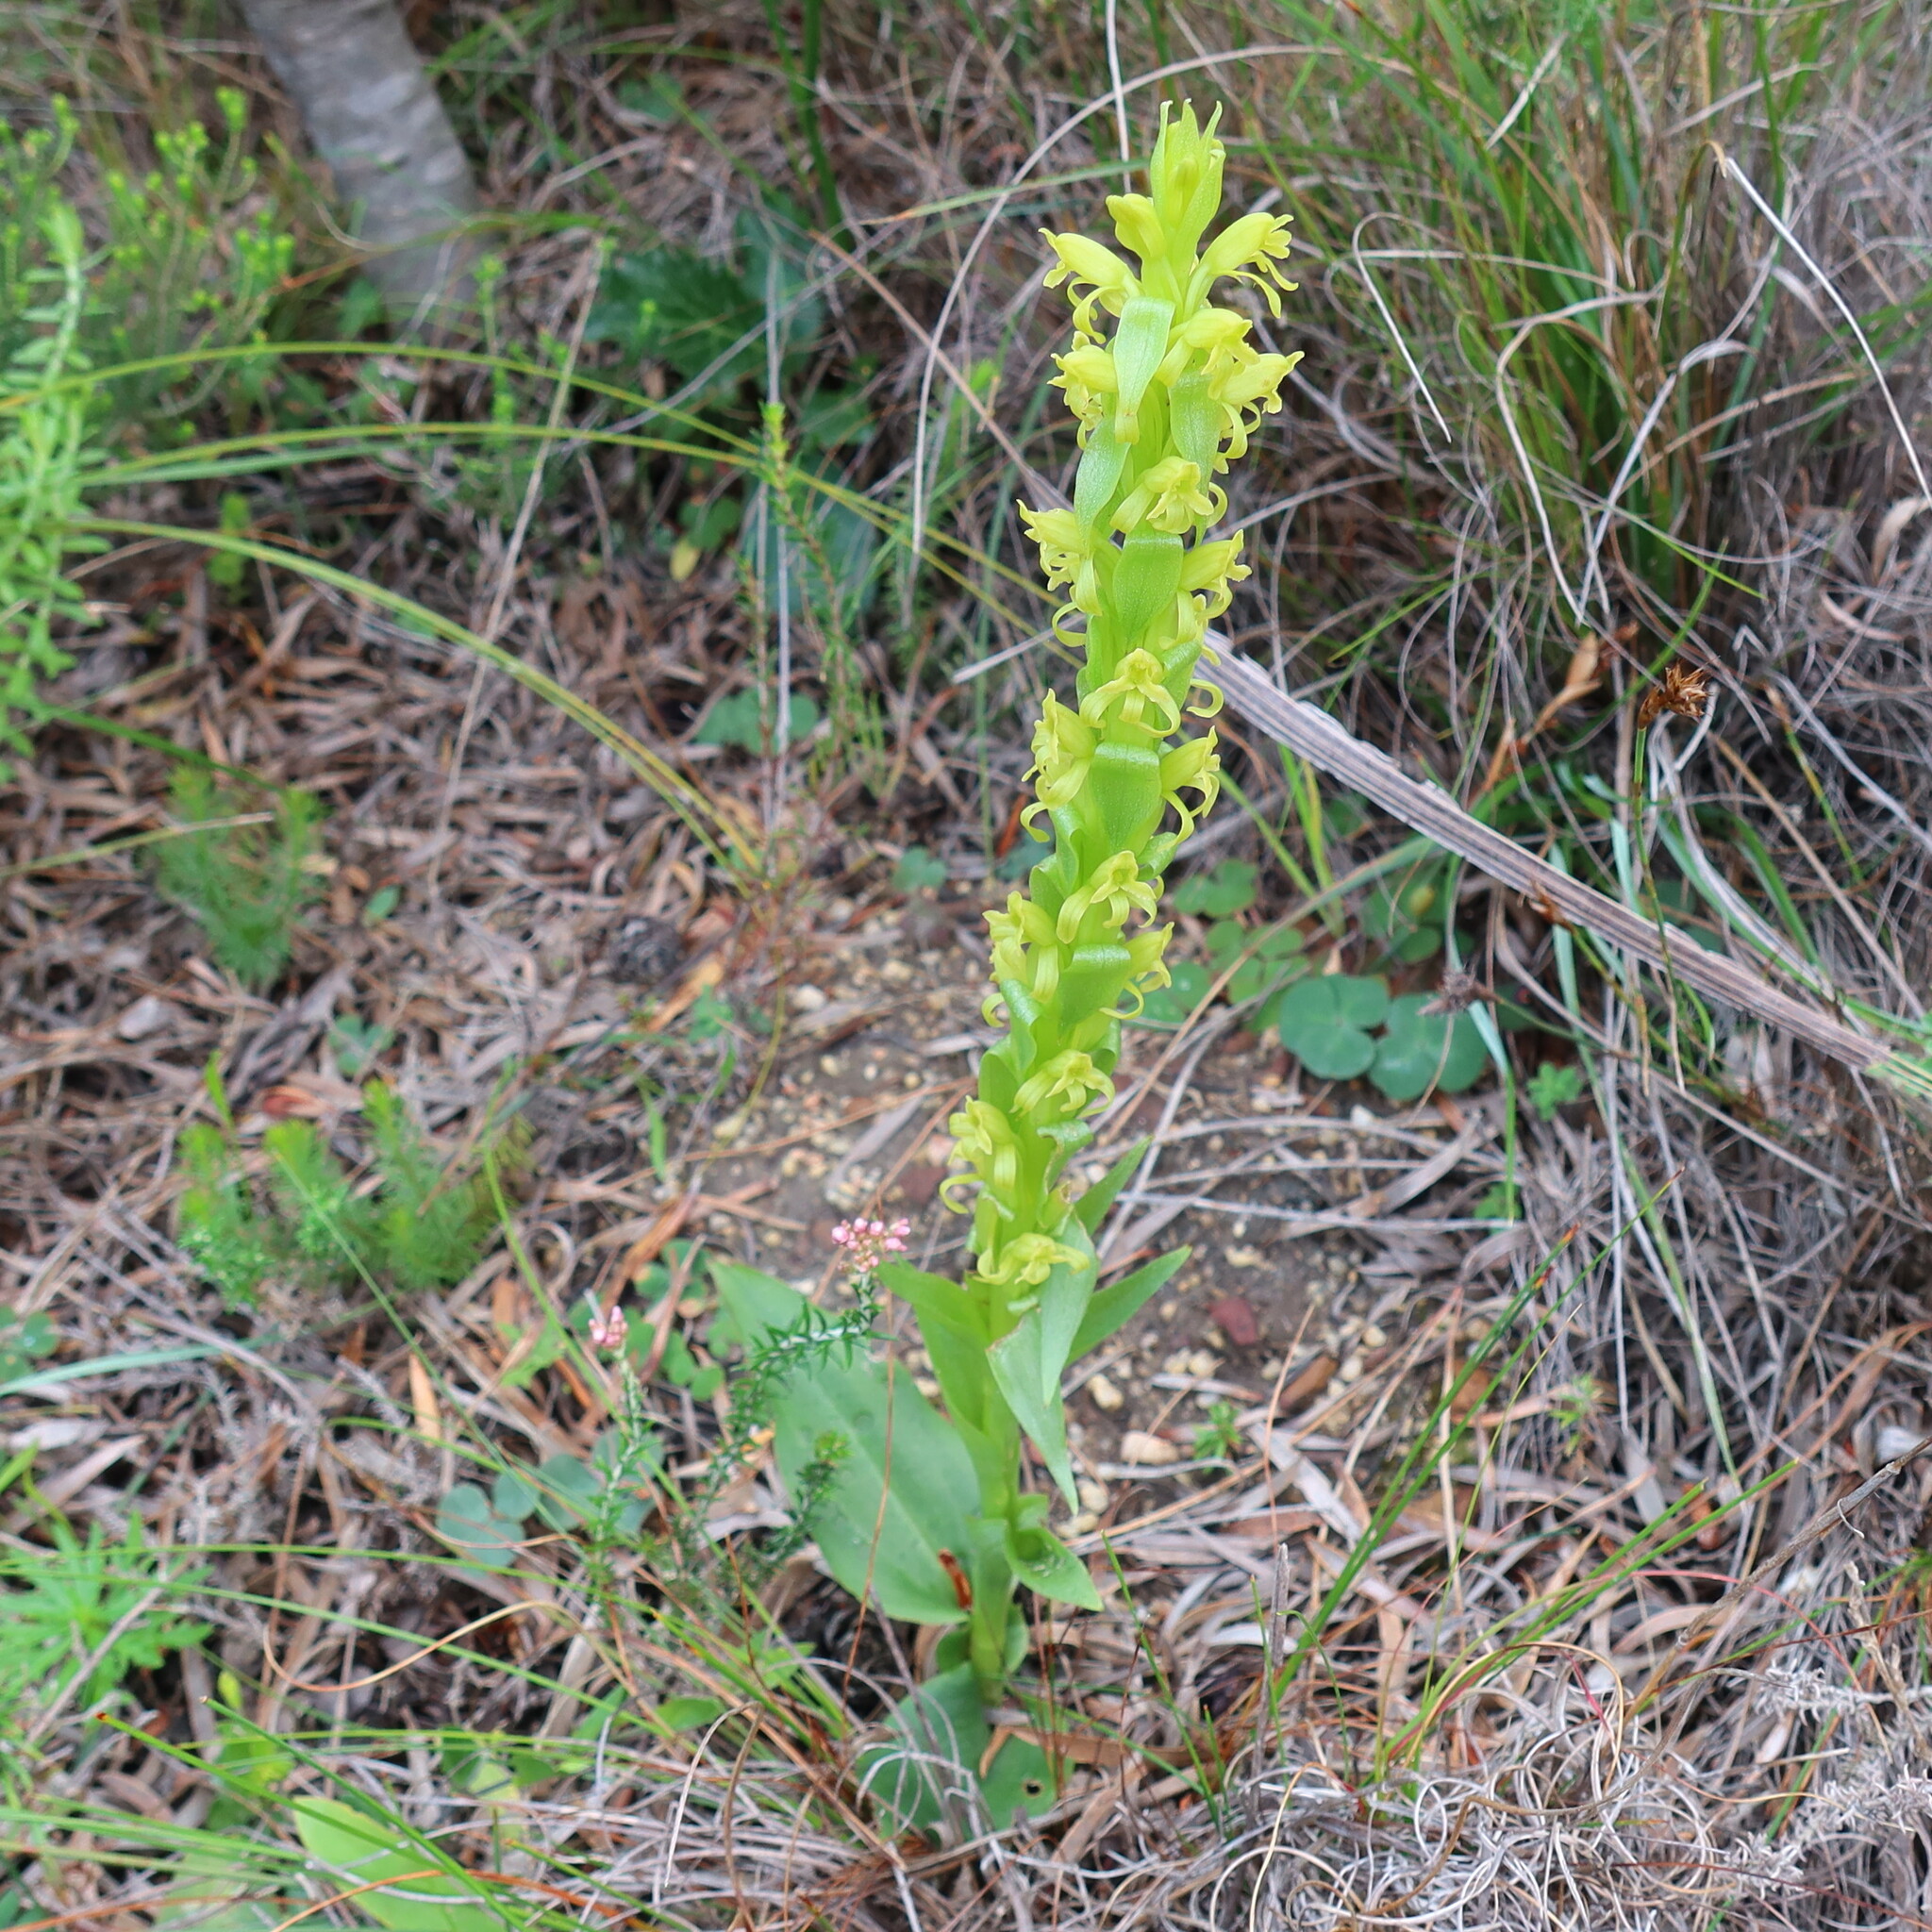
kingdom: Plantae
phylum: Tracheophyta
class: Liliopsida
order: Asparagales
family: Orchidaceae
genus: Satyrium
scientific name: Satyrium lupulinum
